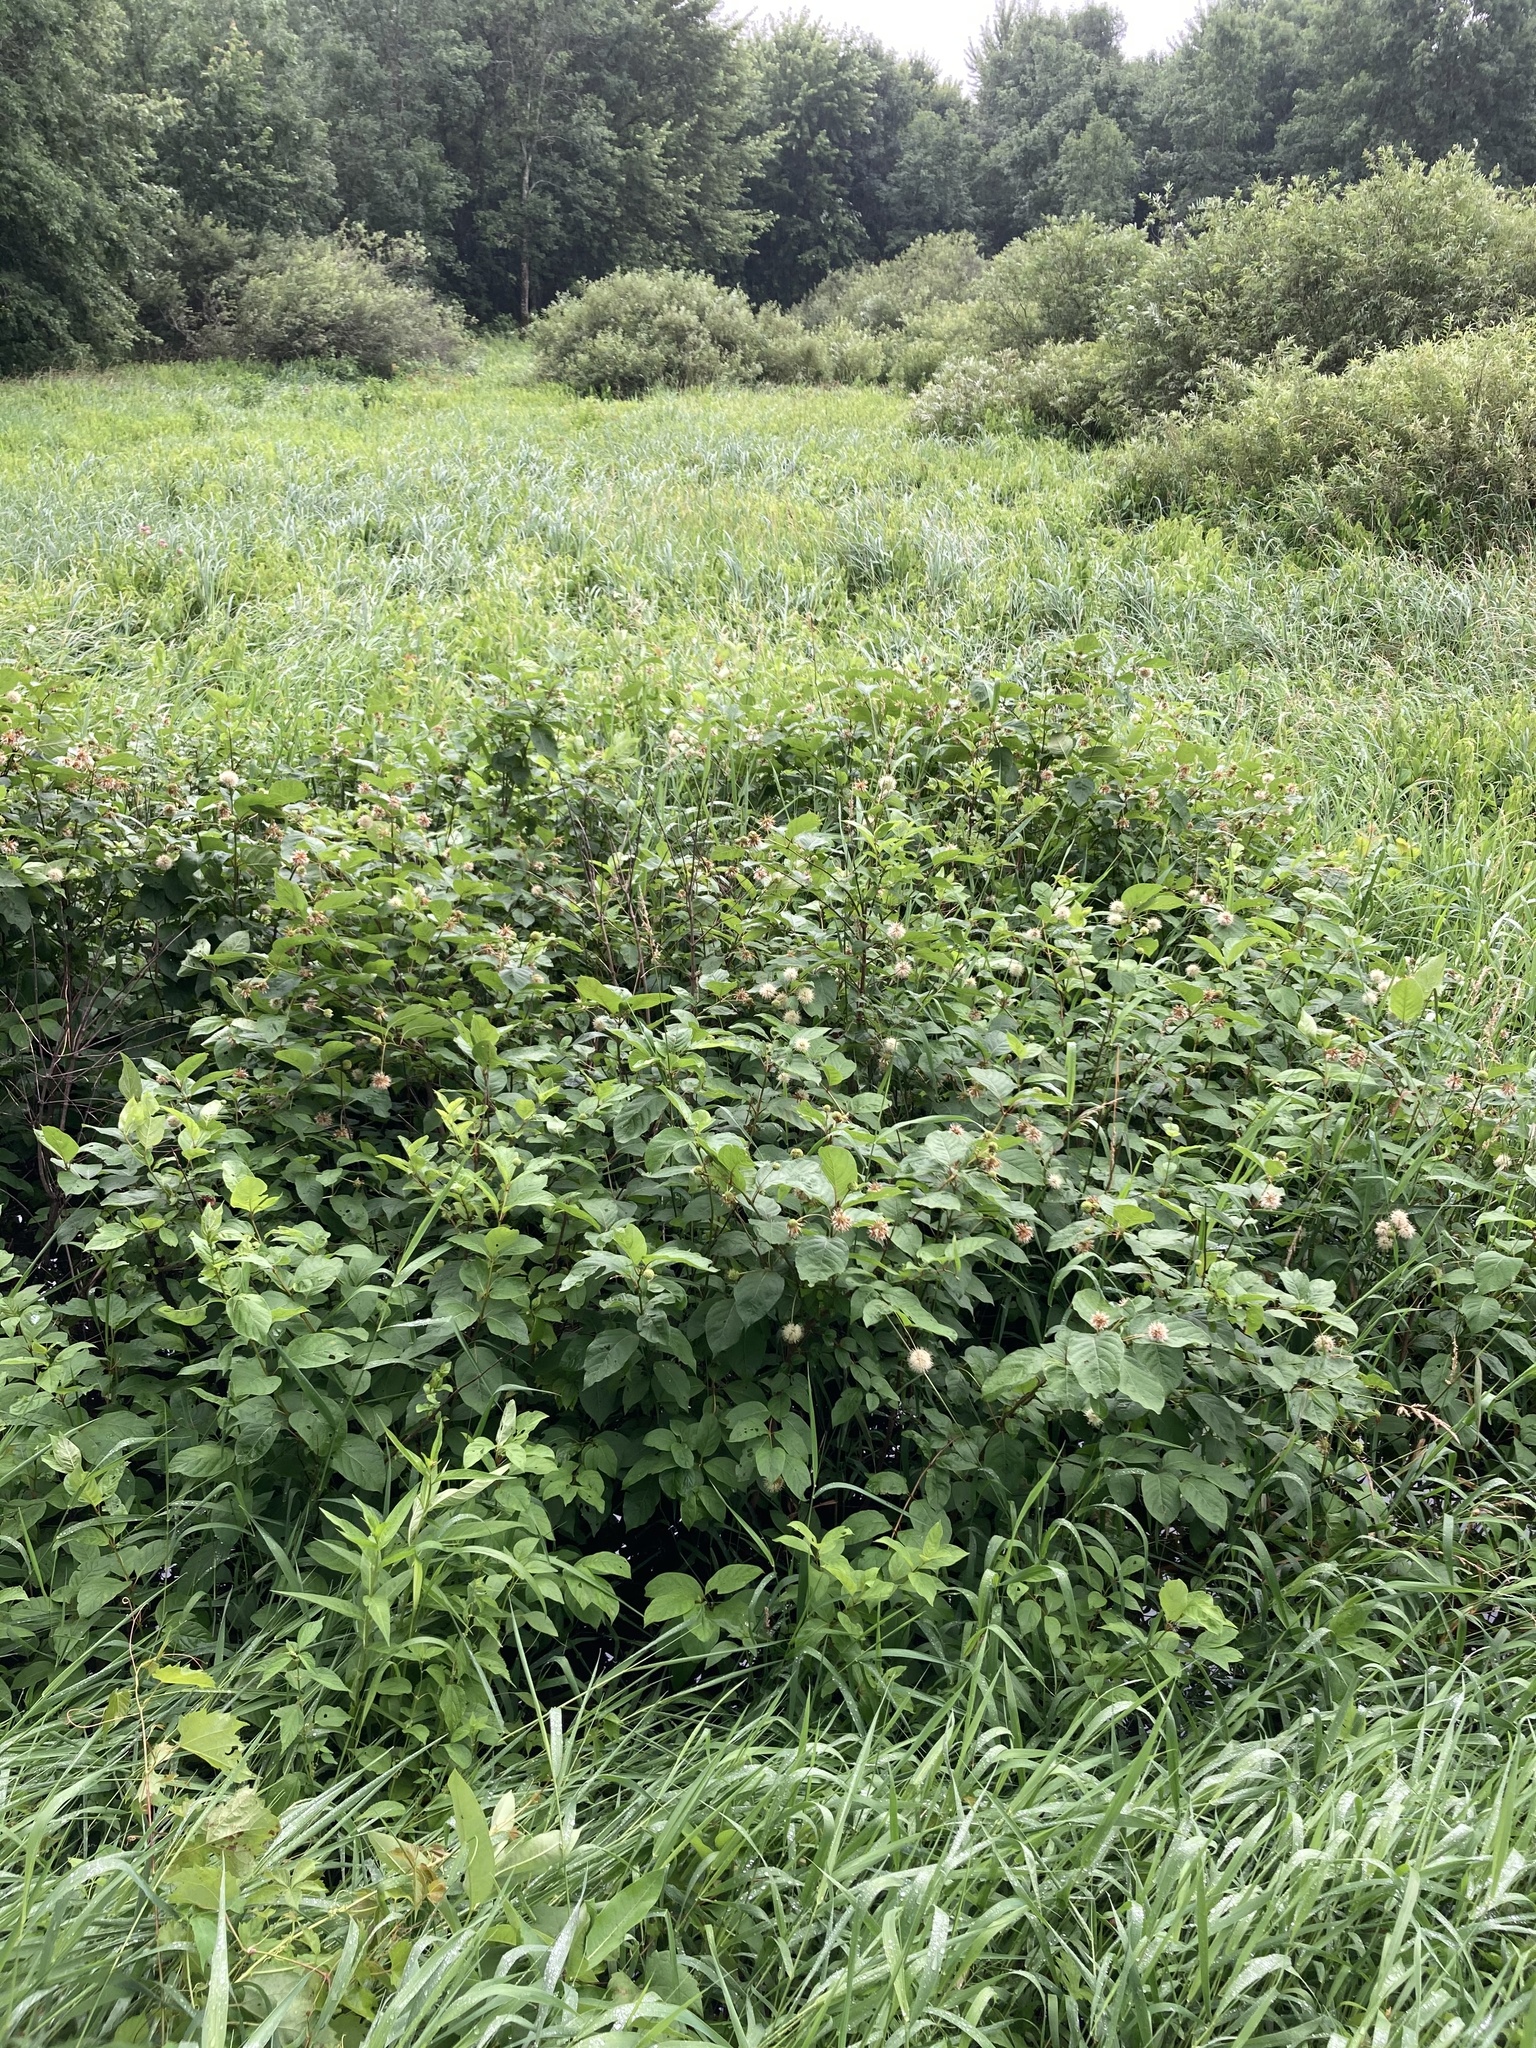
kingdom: Plantae
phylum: Tracheophyta
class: Magnoliopsida
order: Gentianales
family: Rubiaceae
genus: Cephalanthus
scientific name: Cephalanthus occidentalis
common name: Button-willow
